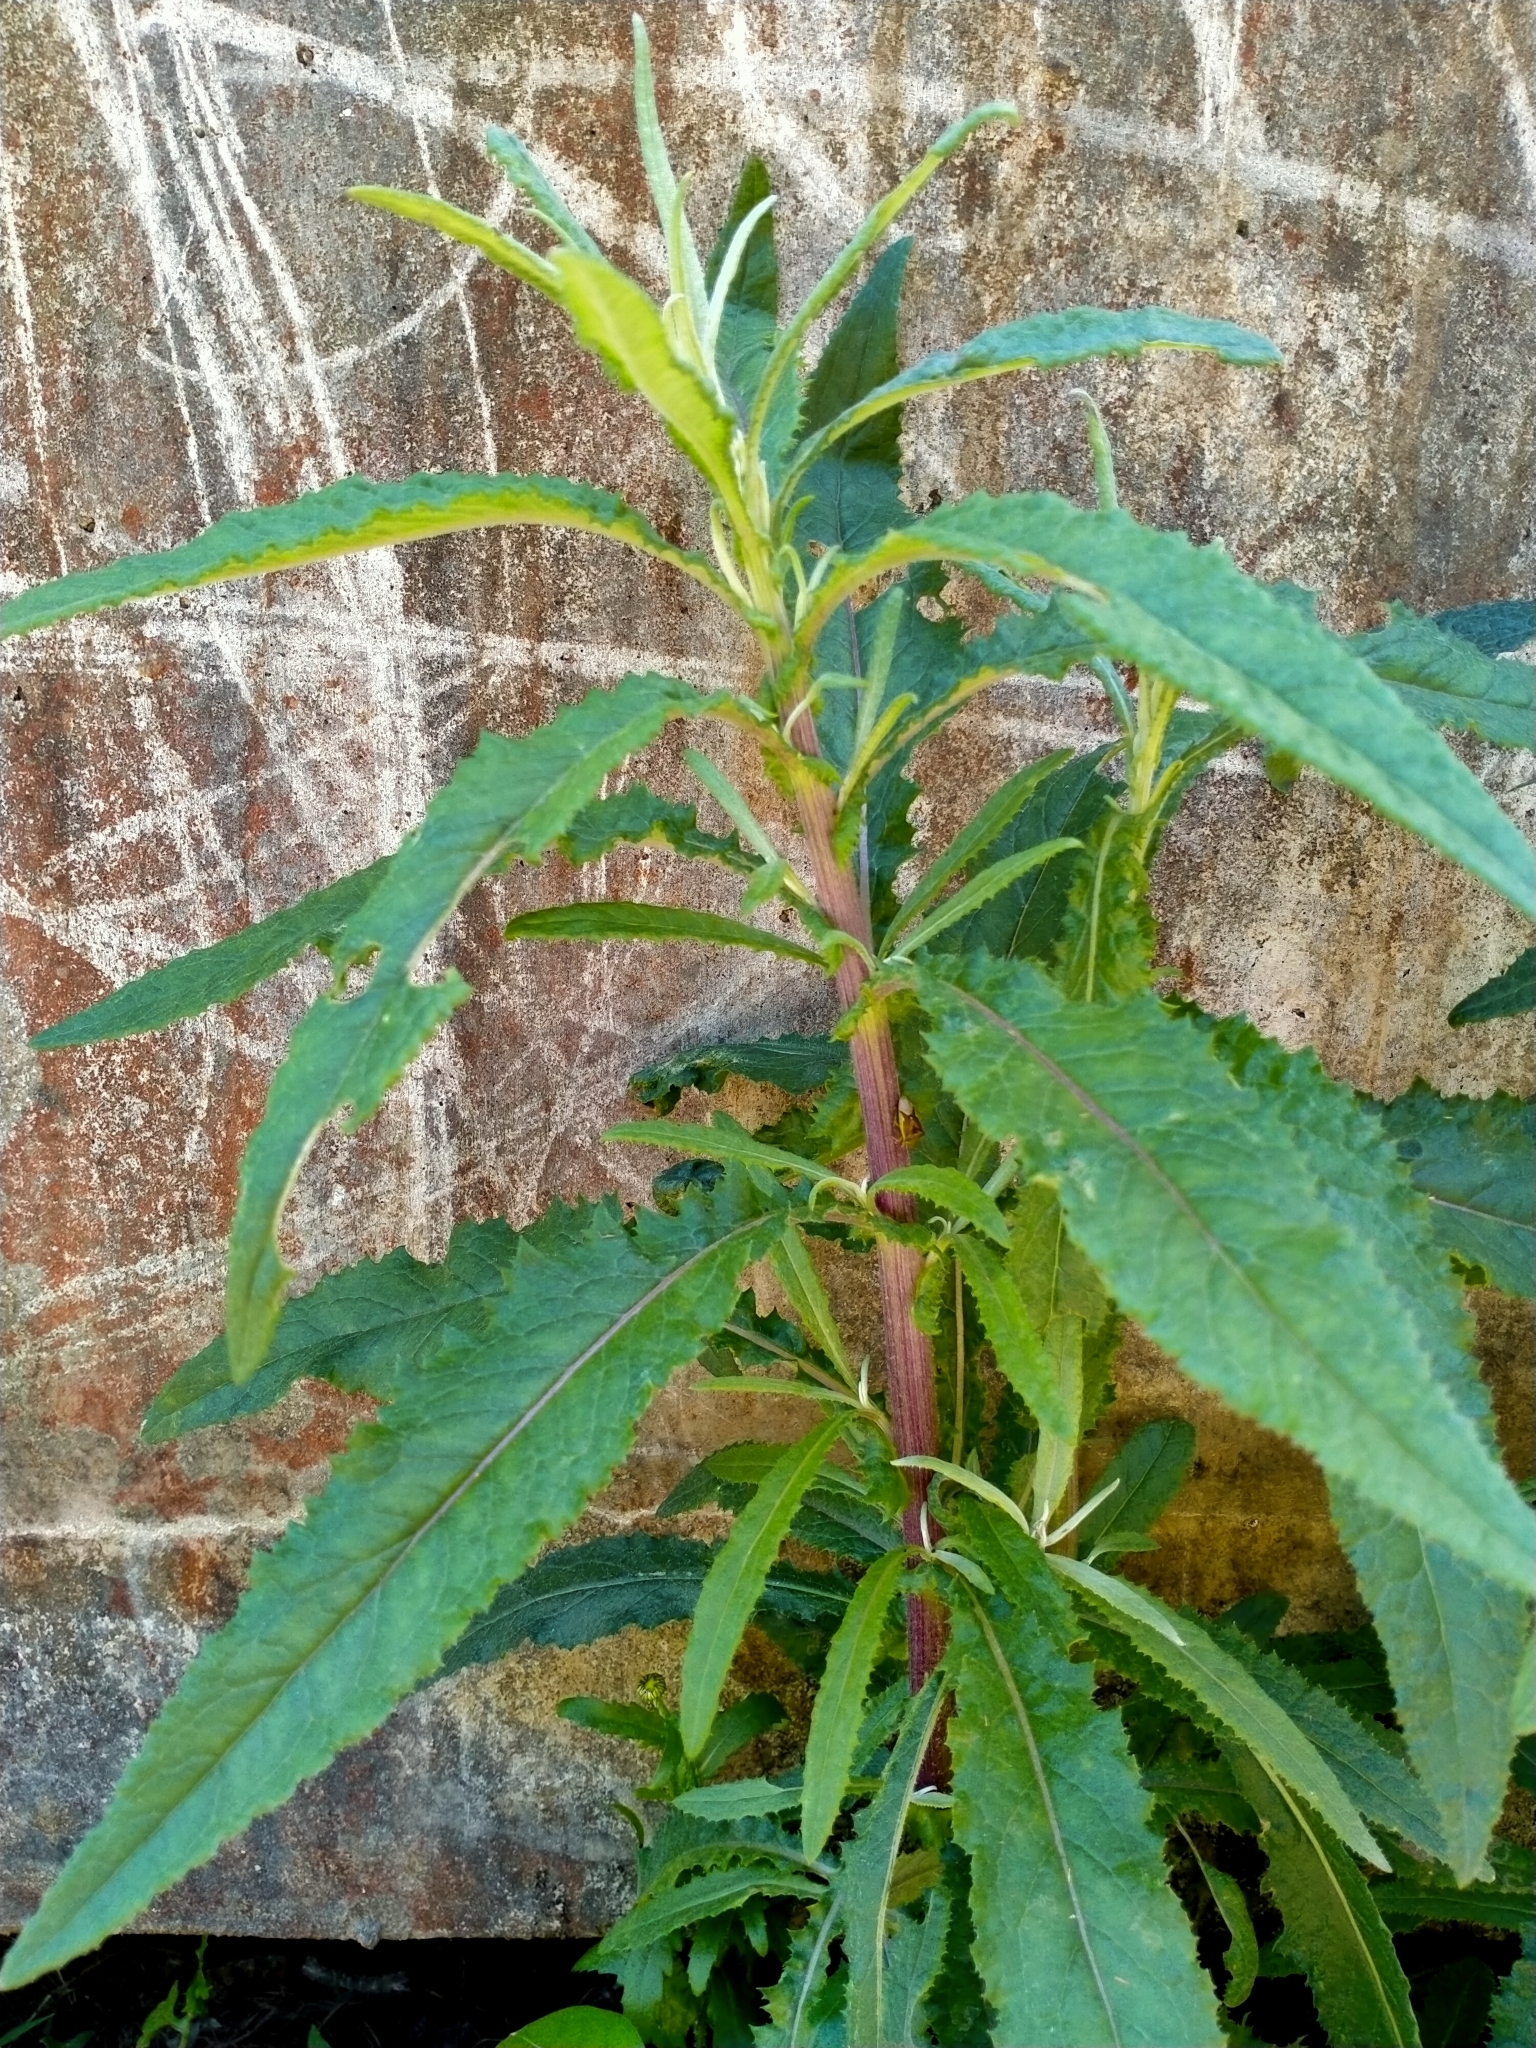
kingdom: Plantae
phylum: Tracheophyta
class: Magnoliopsida
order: Asterales
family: Asteraceae
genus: Senecio
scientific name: Senecio minimus
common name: Toothed fireweed
